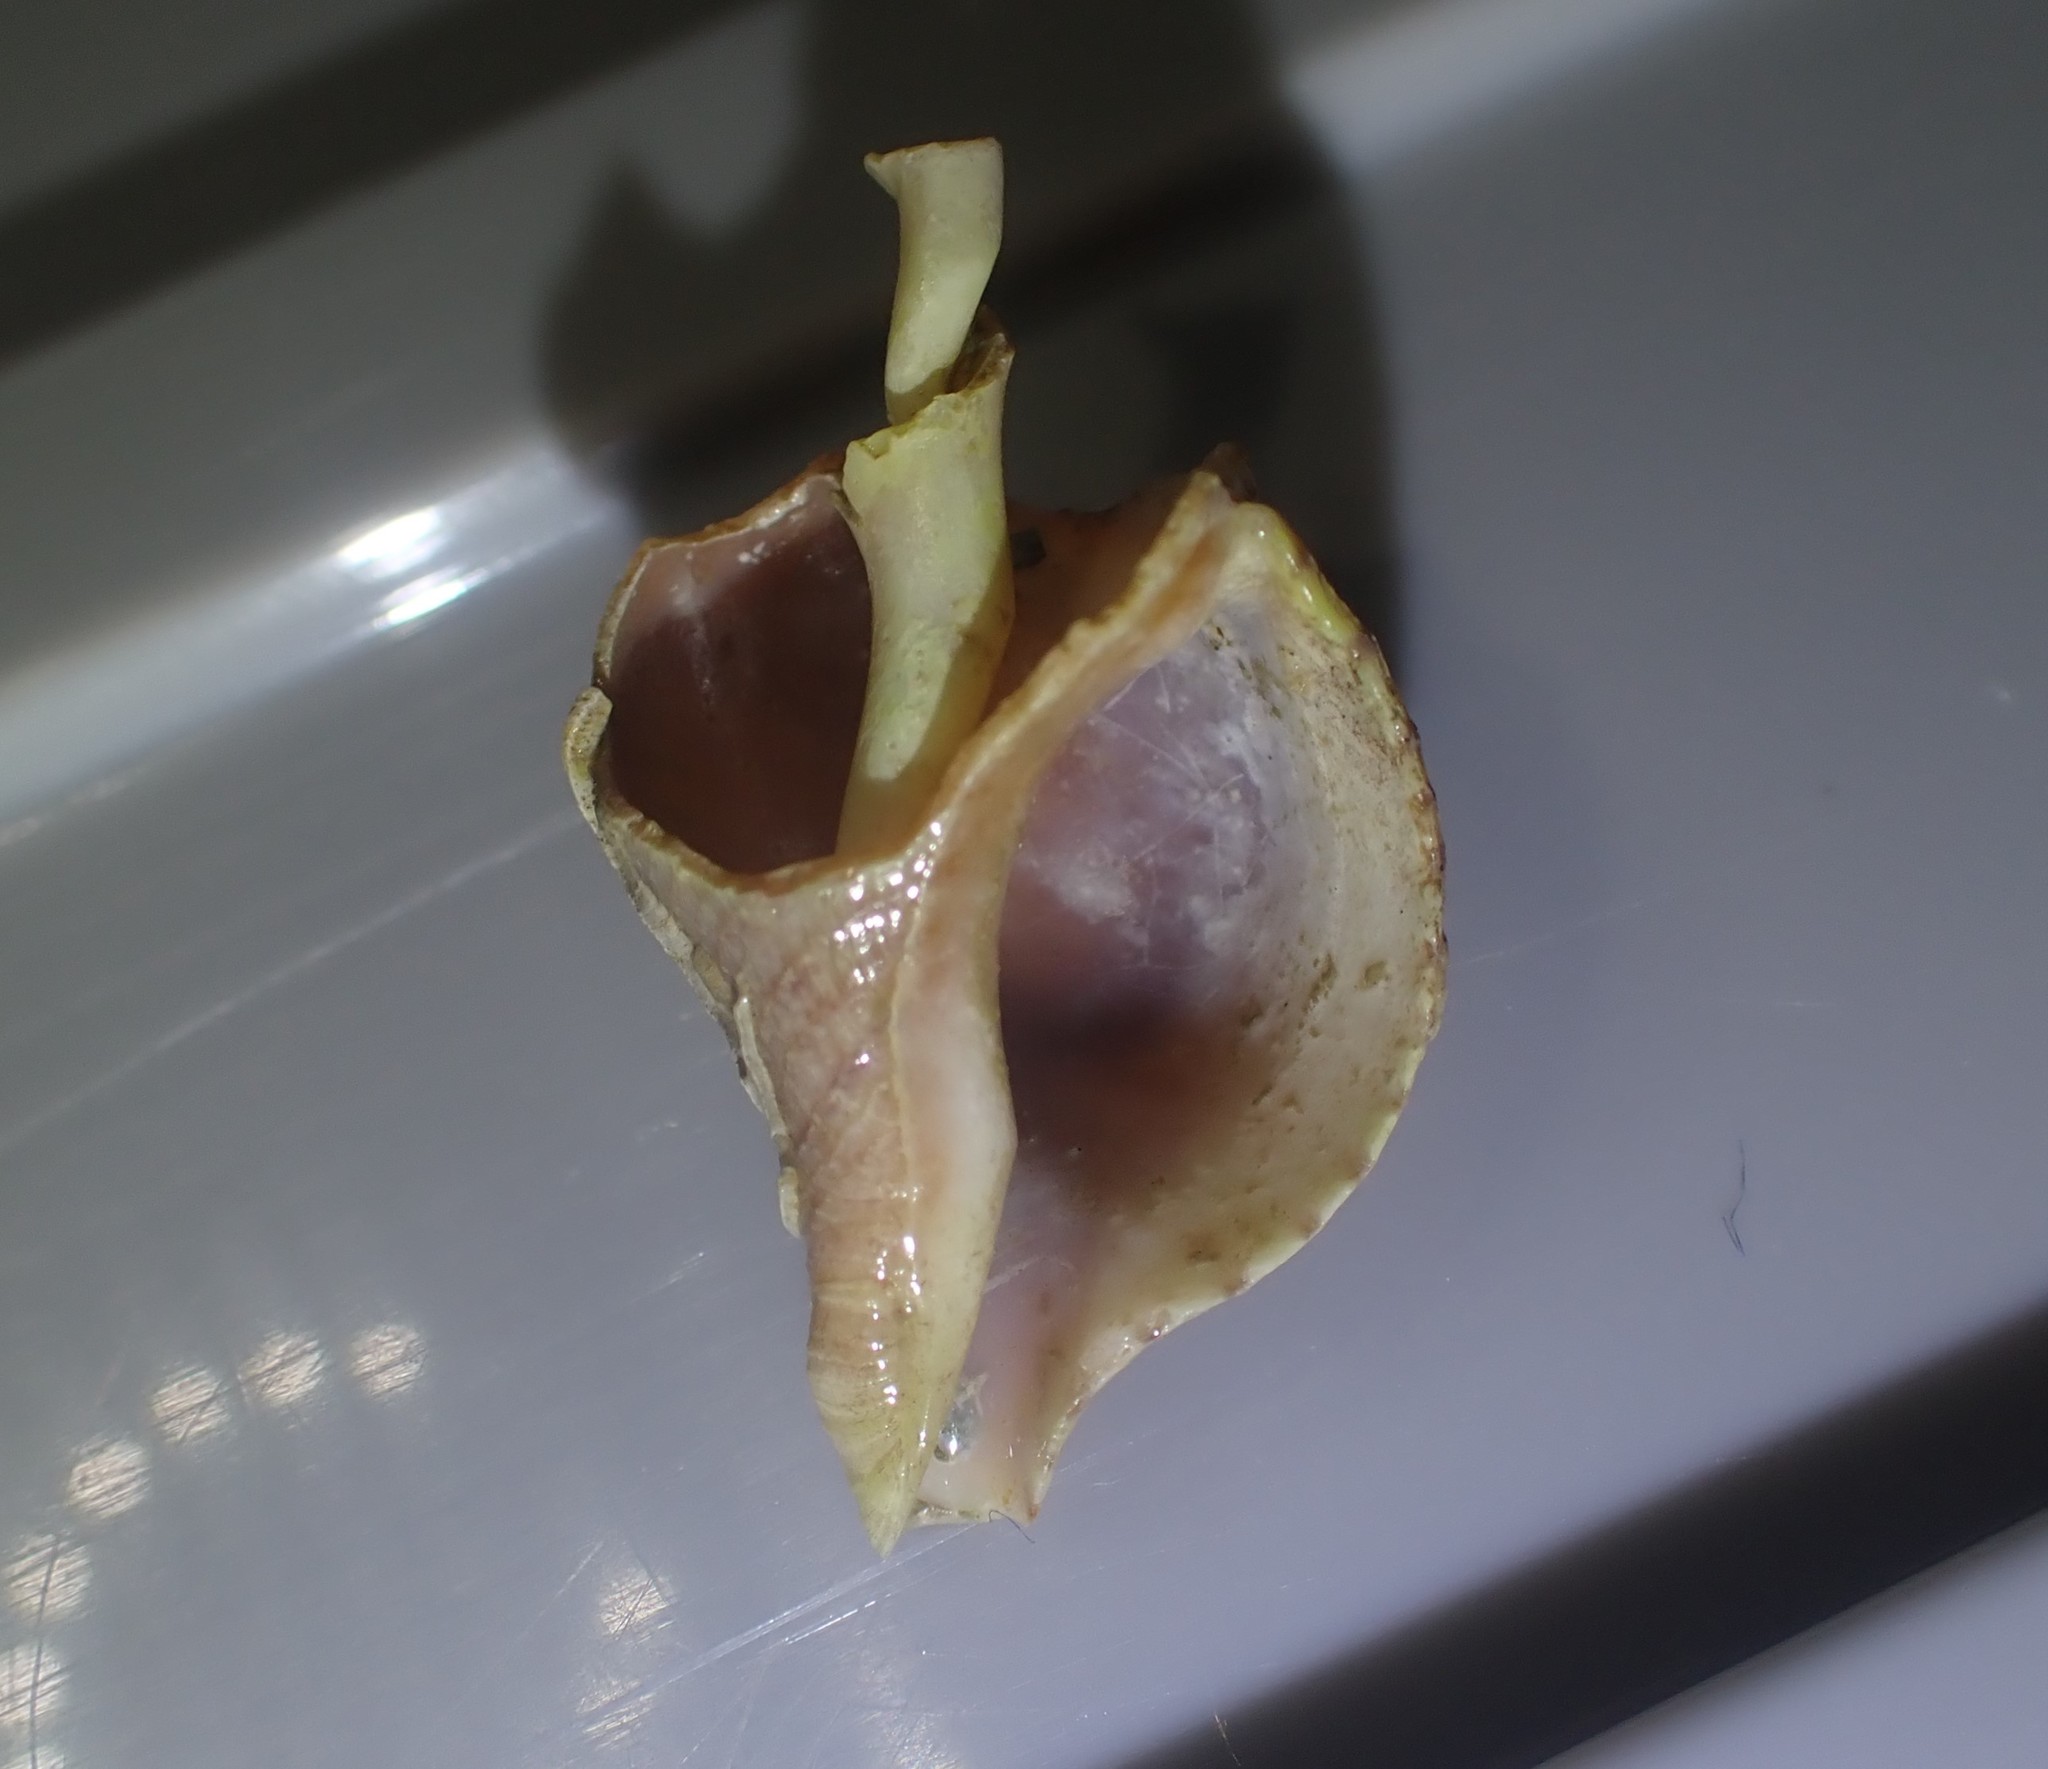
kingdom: Animalia
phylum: Mollusca
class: Gastropoda
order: Neogastropoda
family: Tudiclidae
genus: Buccinulum
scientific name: Buccinulum linea
